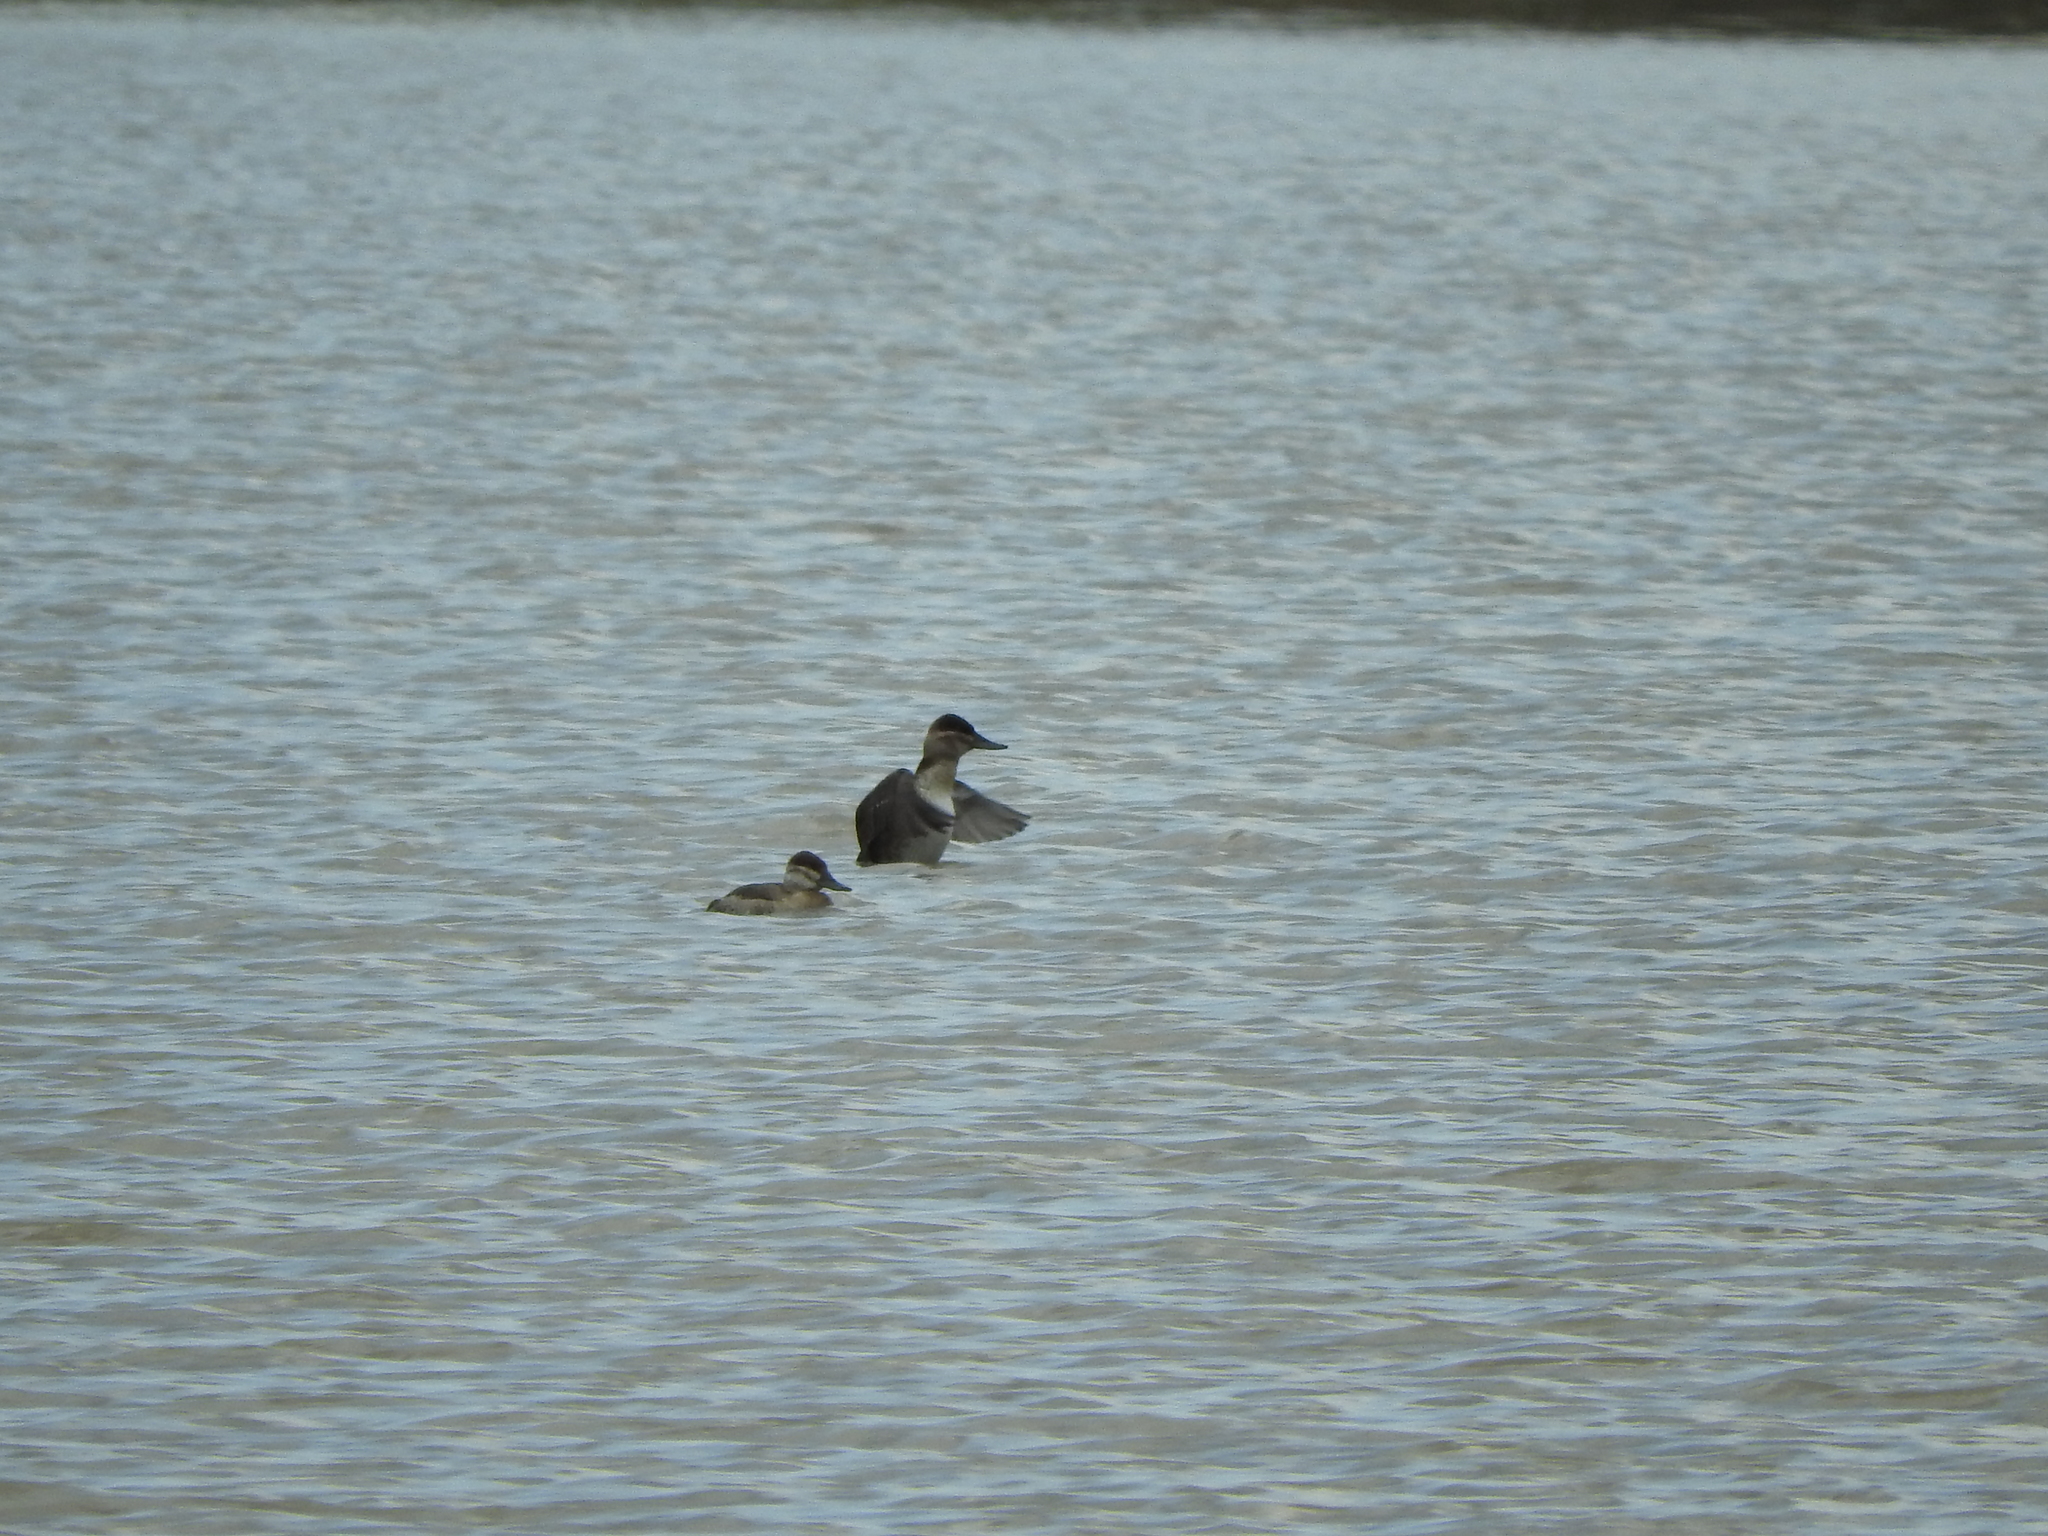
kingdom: Animalia
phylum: Chordata
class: Aves
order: Anseriformes
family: Anatidae
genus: Oxyura
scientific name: Oxyura jamaicensis
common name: Ruddy duck
